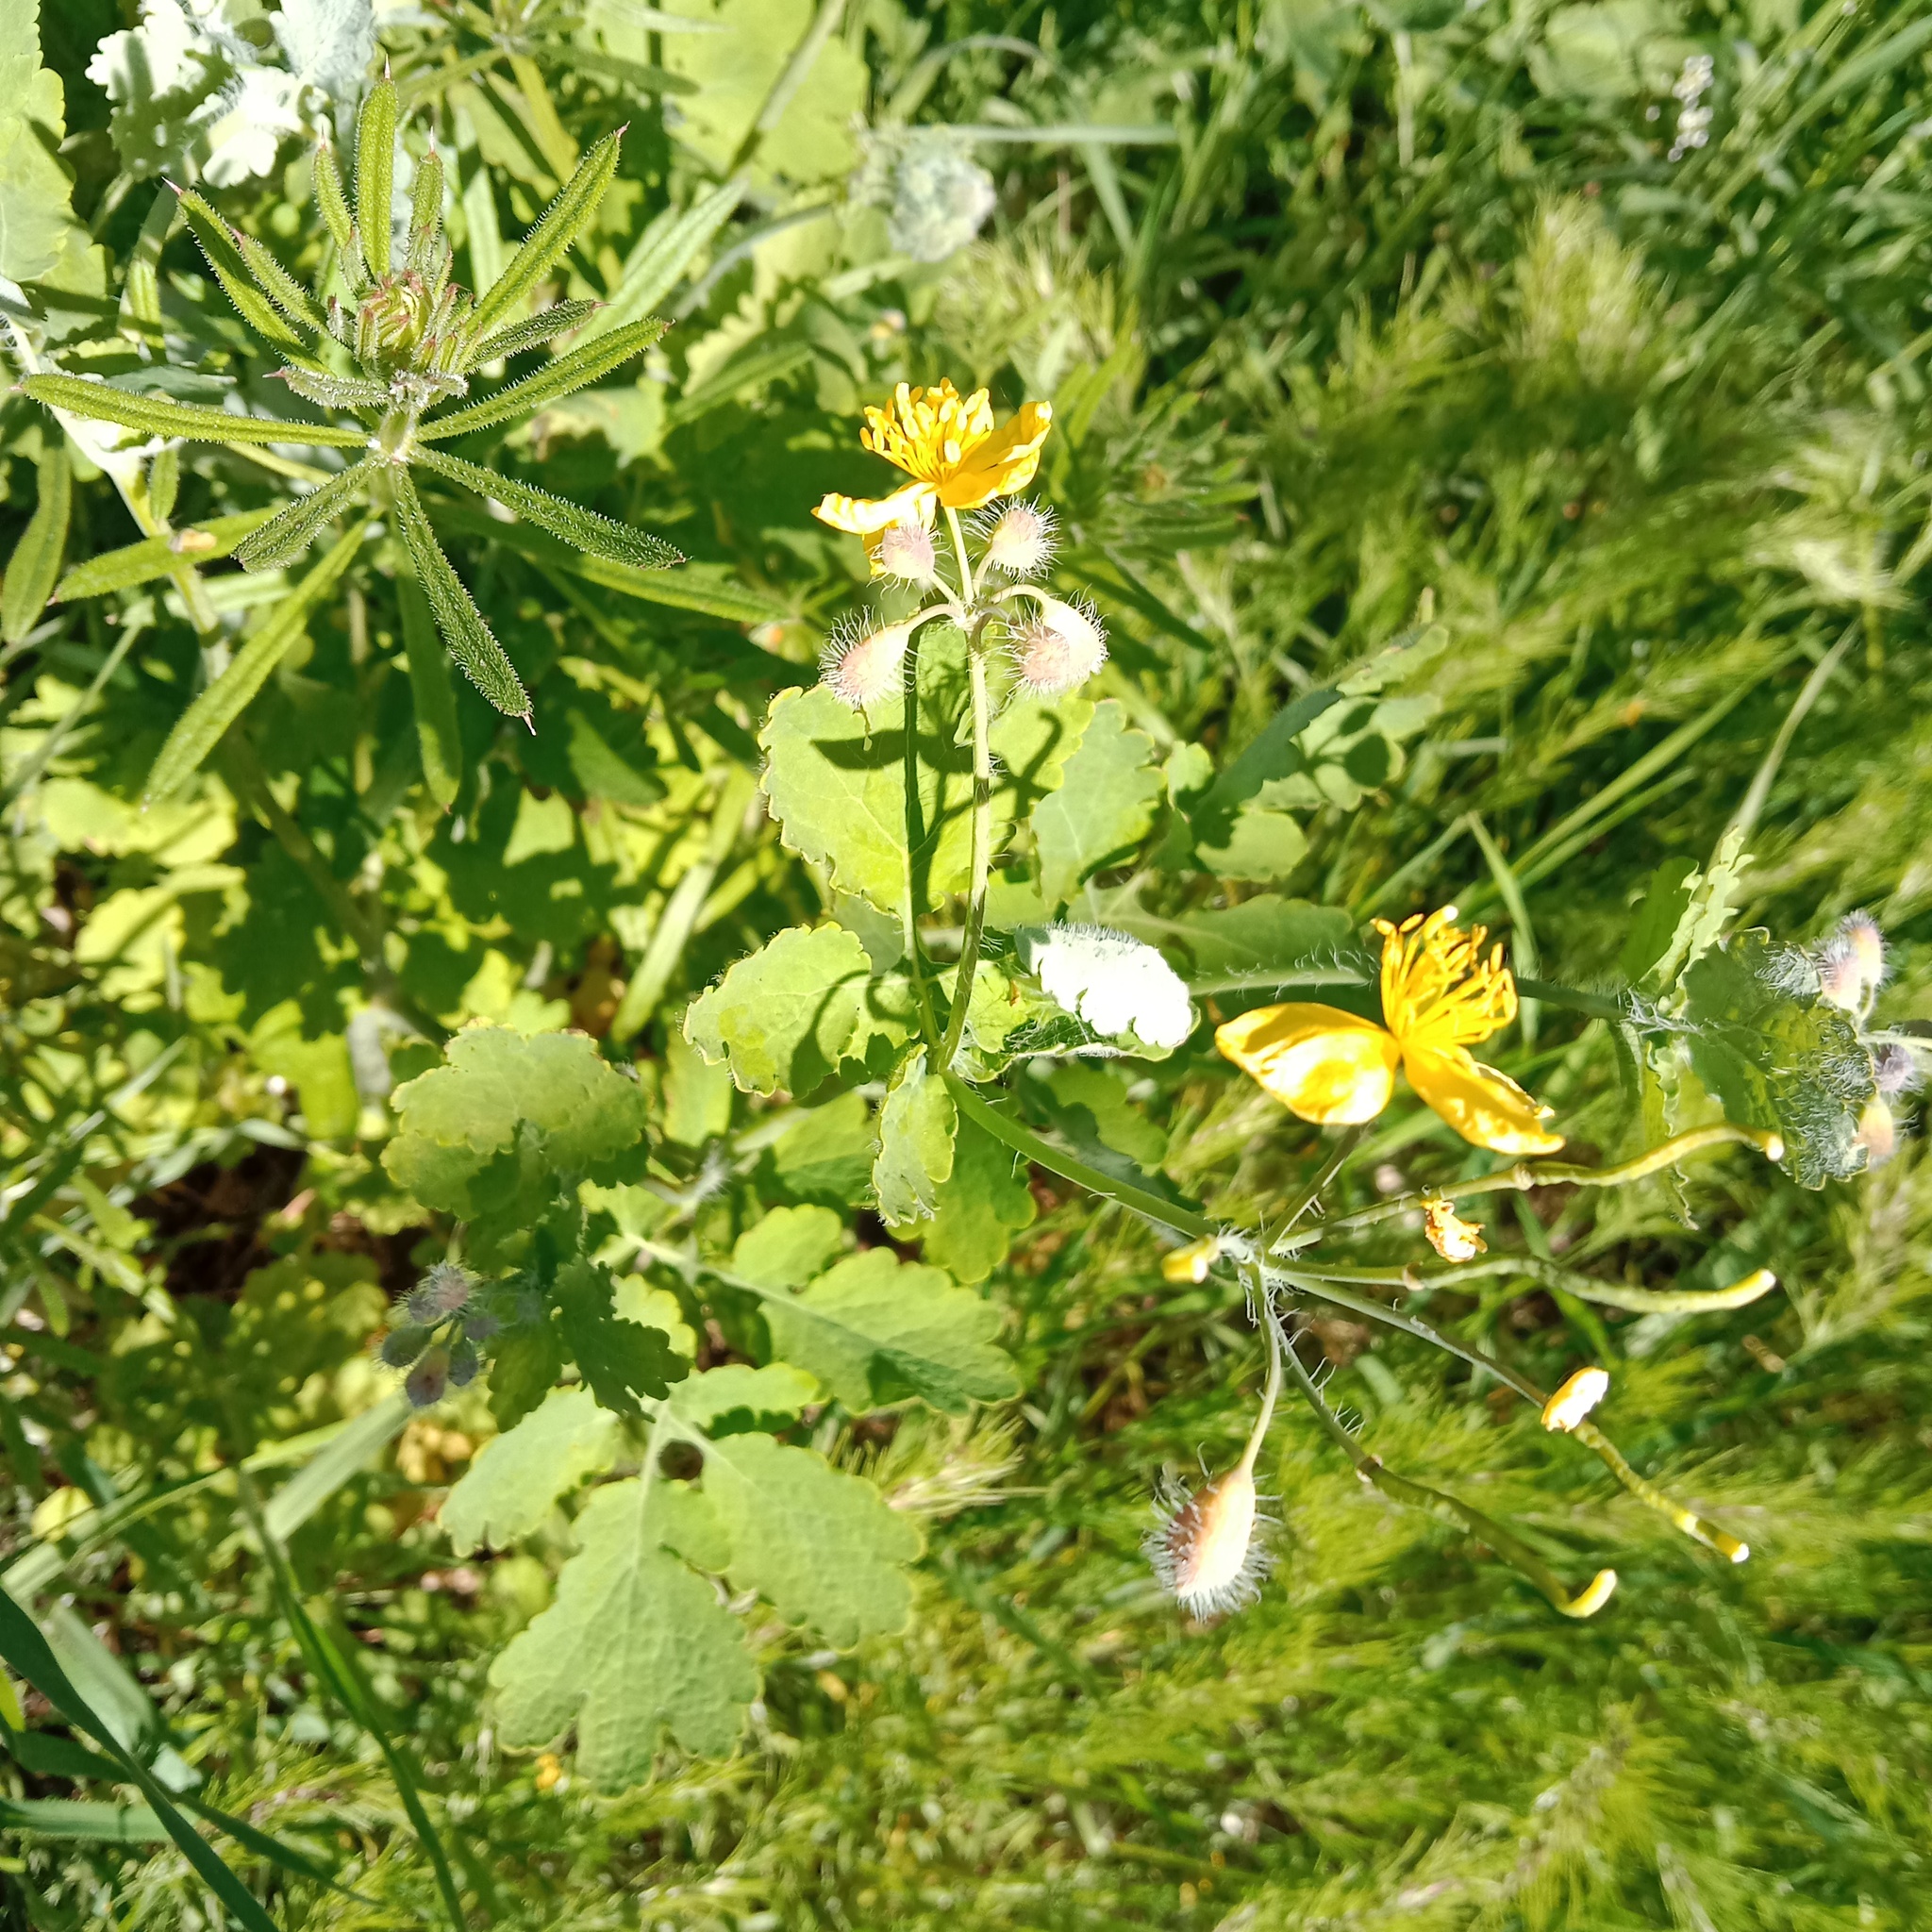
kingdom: Plantae
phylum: Tracheophyta
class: Magnoliopsida
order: Ranunculales
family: Papaveraceae
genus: Chelidonium
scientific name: Chelidonium majus
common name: Greater celandine
